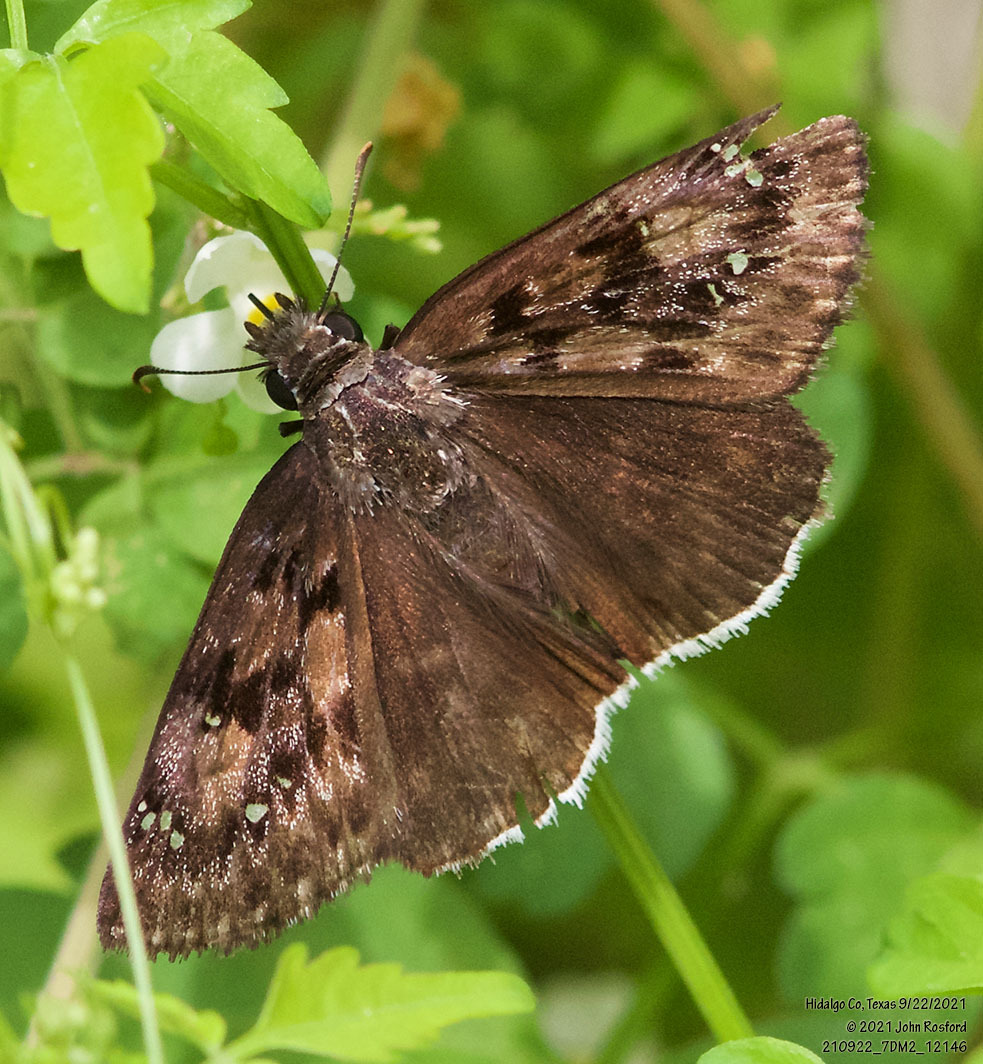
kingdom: Animalia
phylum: Arthropoda
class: Insecta
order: Lepidoptera
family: Hesperiidae
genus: Erynnis
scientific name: Erynnis tristis
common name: Mournful duskywing
